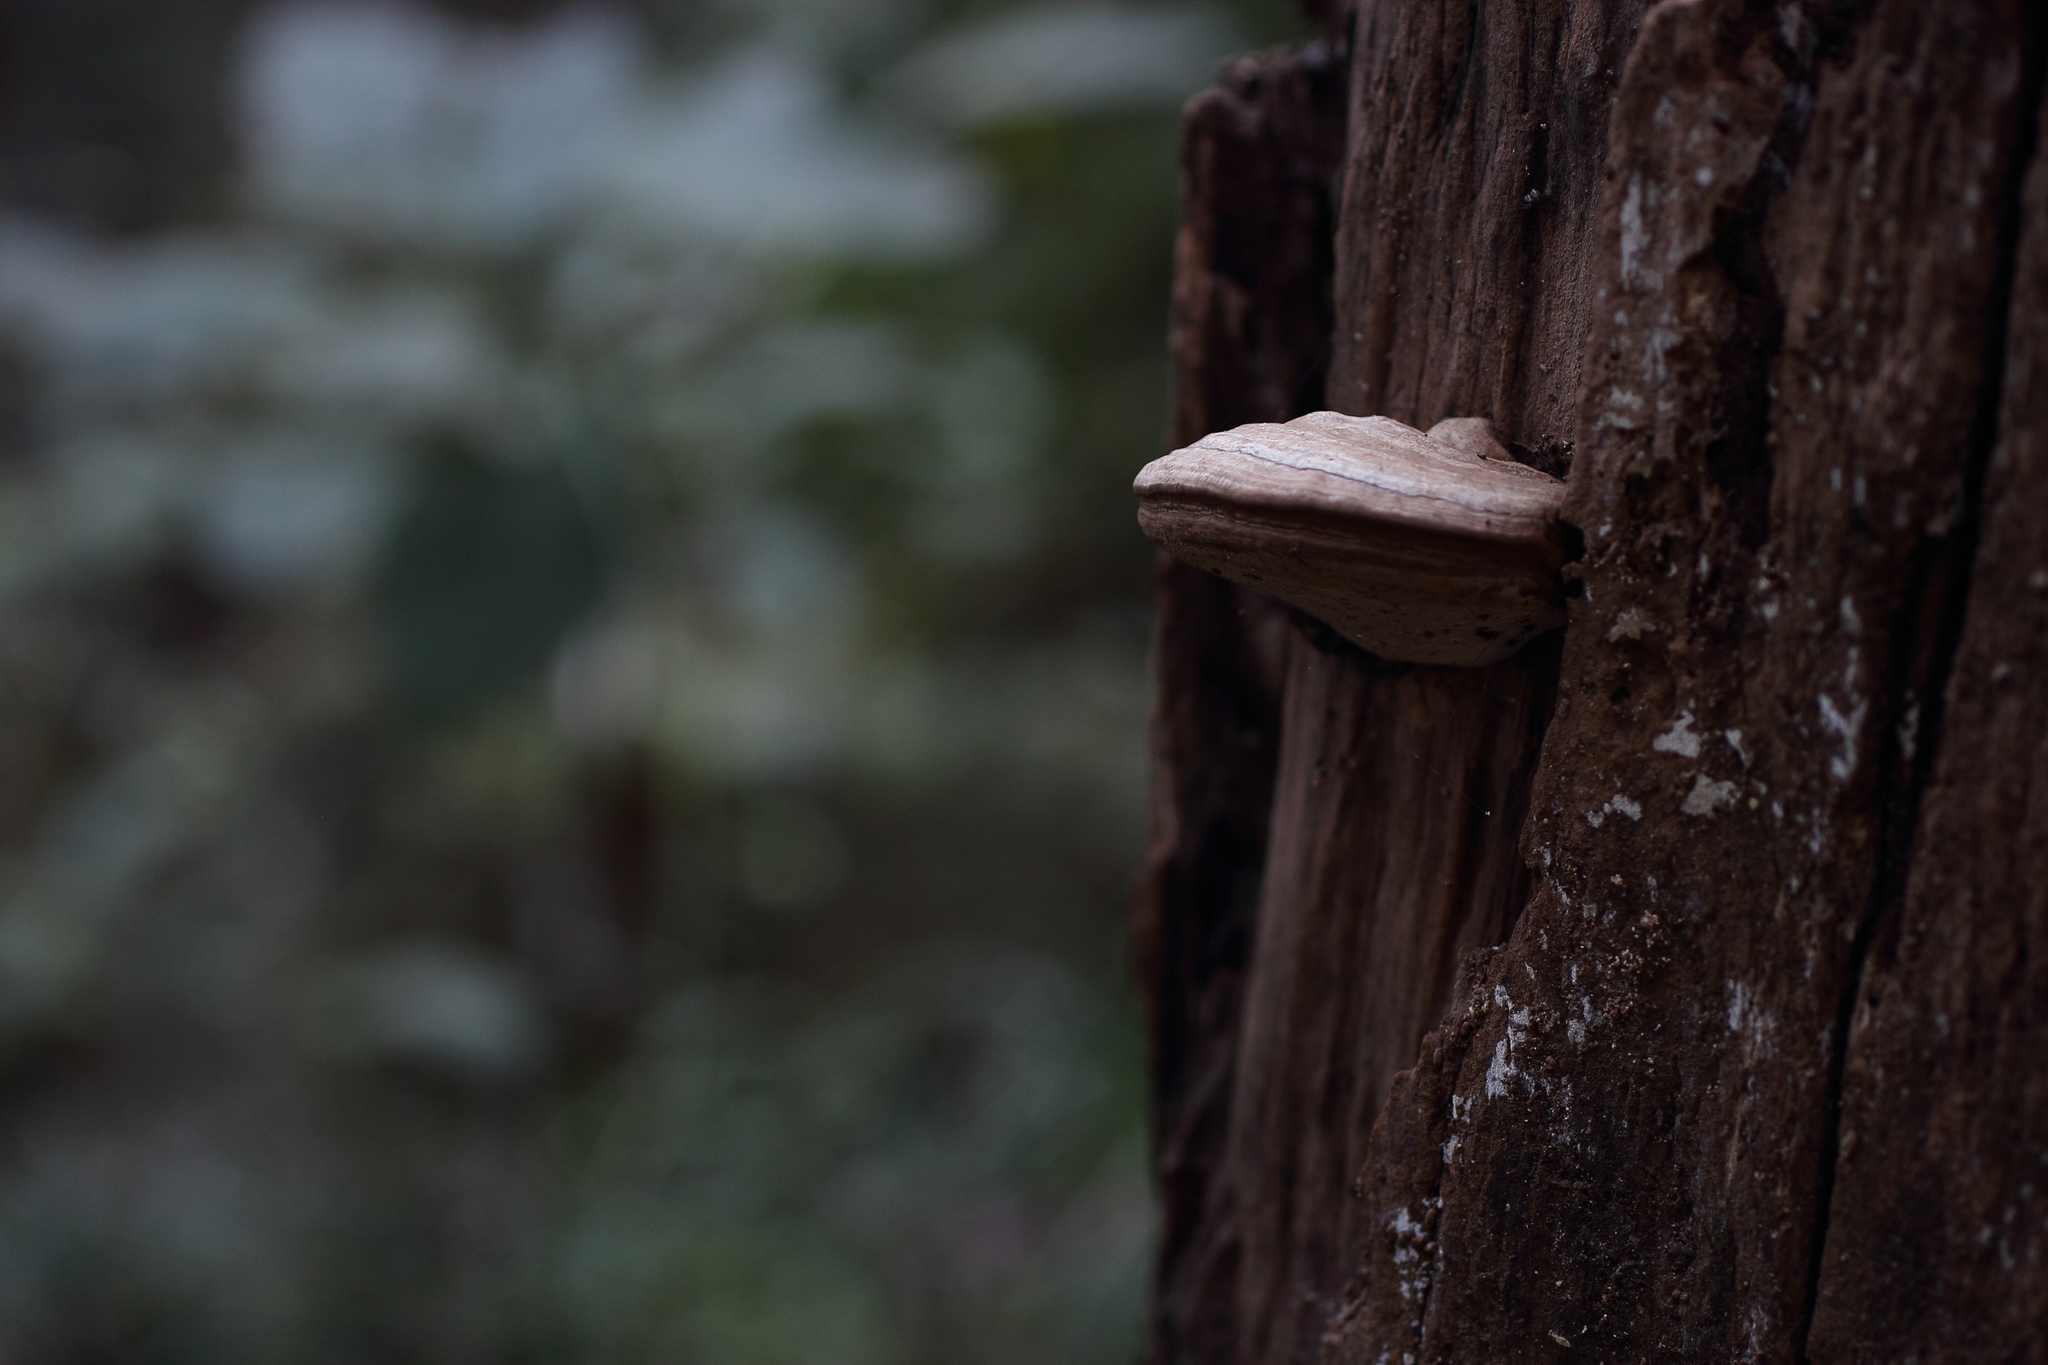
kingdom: Fungi
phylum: Basidiomycota
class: Agaricomycetes
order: Polyporales
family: Polyporaceae
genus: Ganoderma
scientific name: Ganoderma applanatum
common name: Artist's bracket
